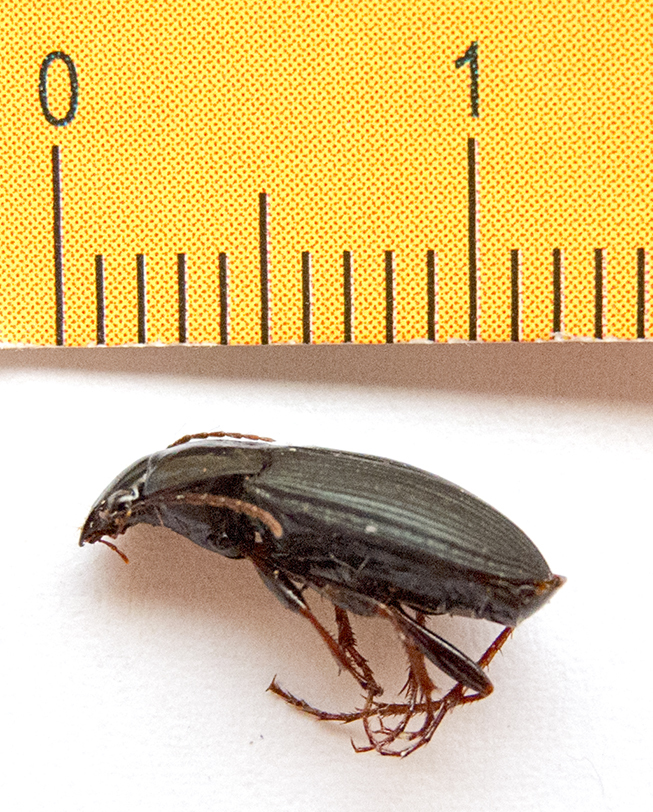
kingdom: Animalia
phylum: Arthropoda
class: Insecta
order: Coleoptera
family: Carabidae
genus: Calathus
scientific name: Calathus fuscipes
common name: Dark-footed harp ground beetle
